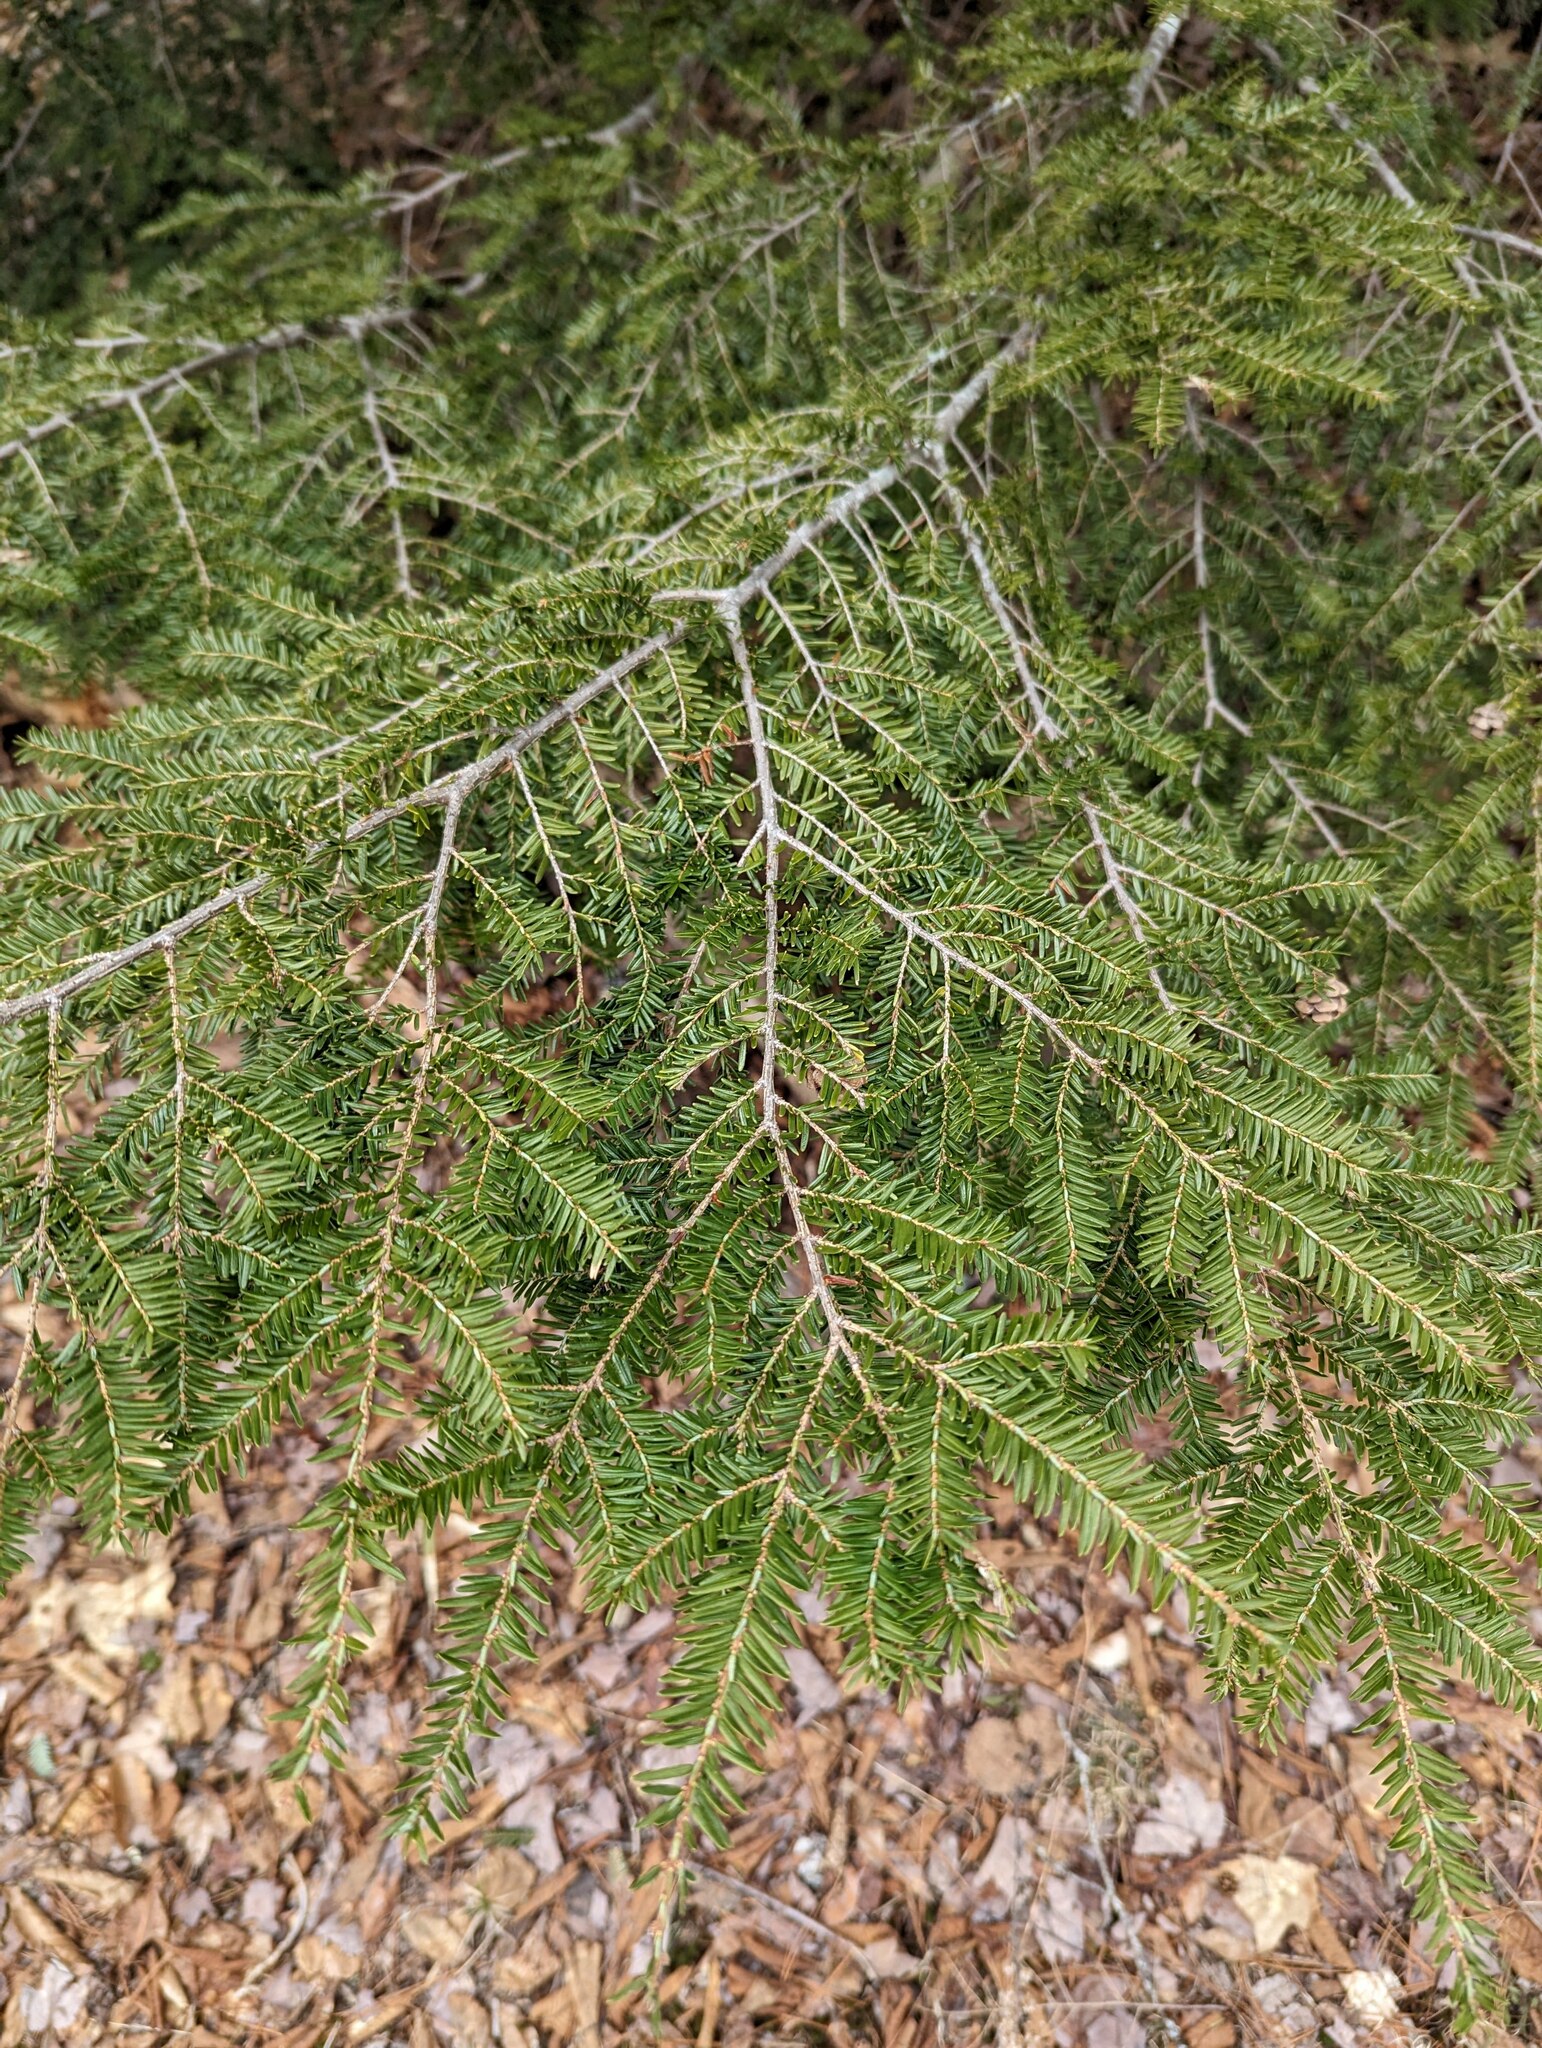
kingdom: Plantae
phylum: Tracheophyta
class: Pinopsida
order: Pinales
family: Pinaceae
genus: Tsuga
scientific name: Tsuga canadensis
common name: Eastern hemlock
